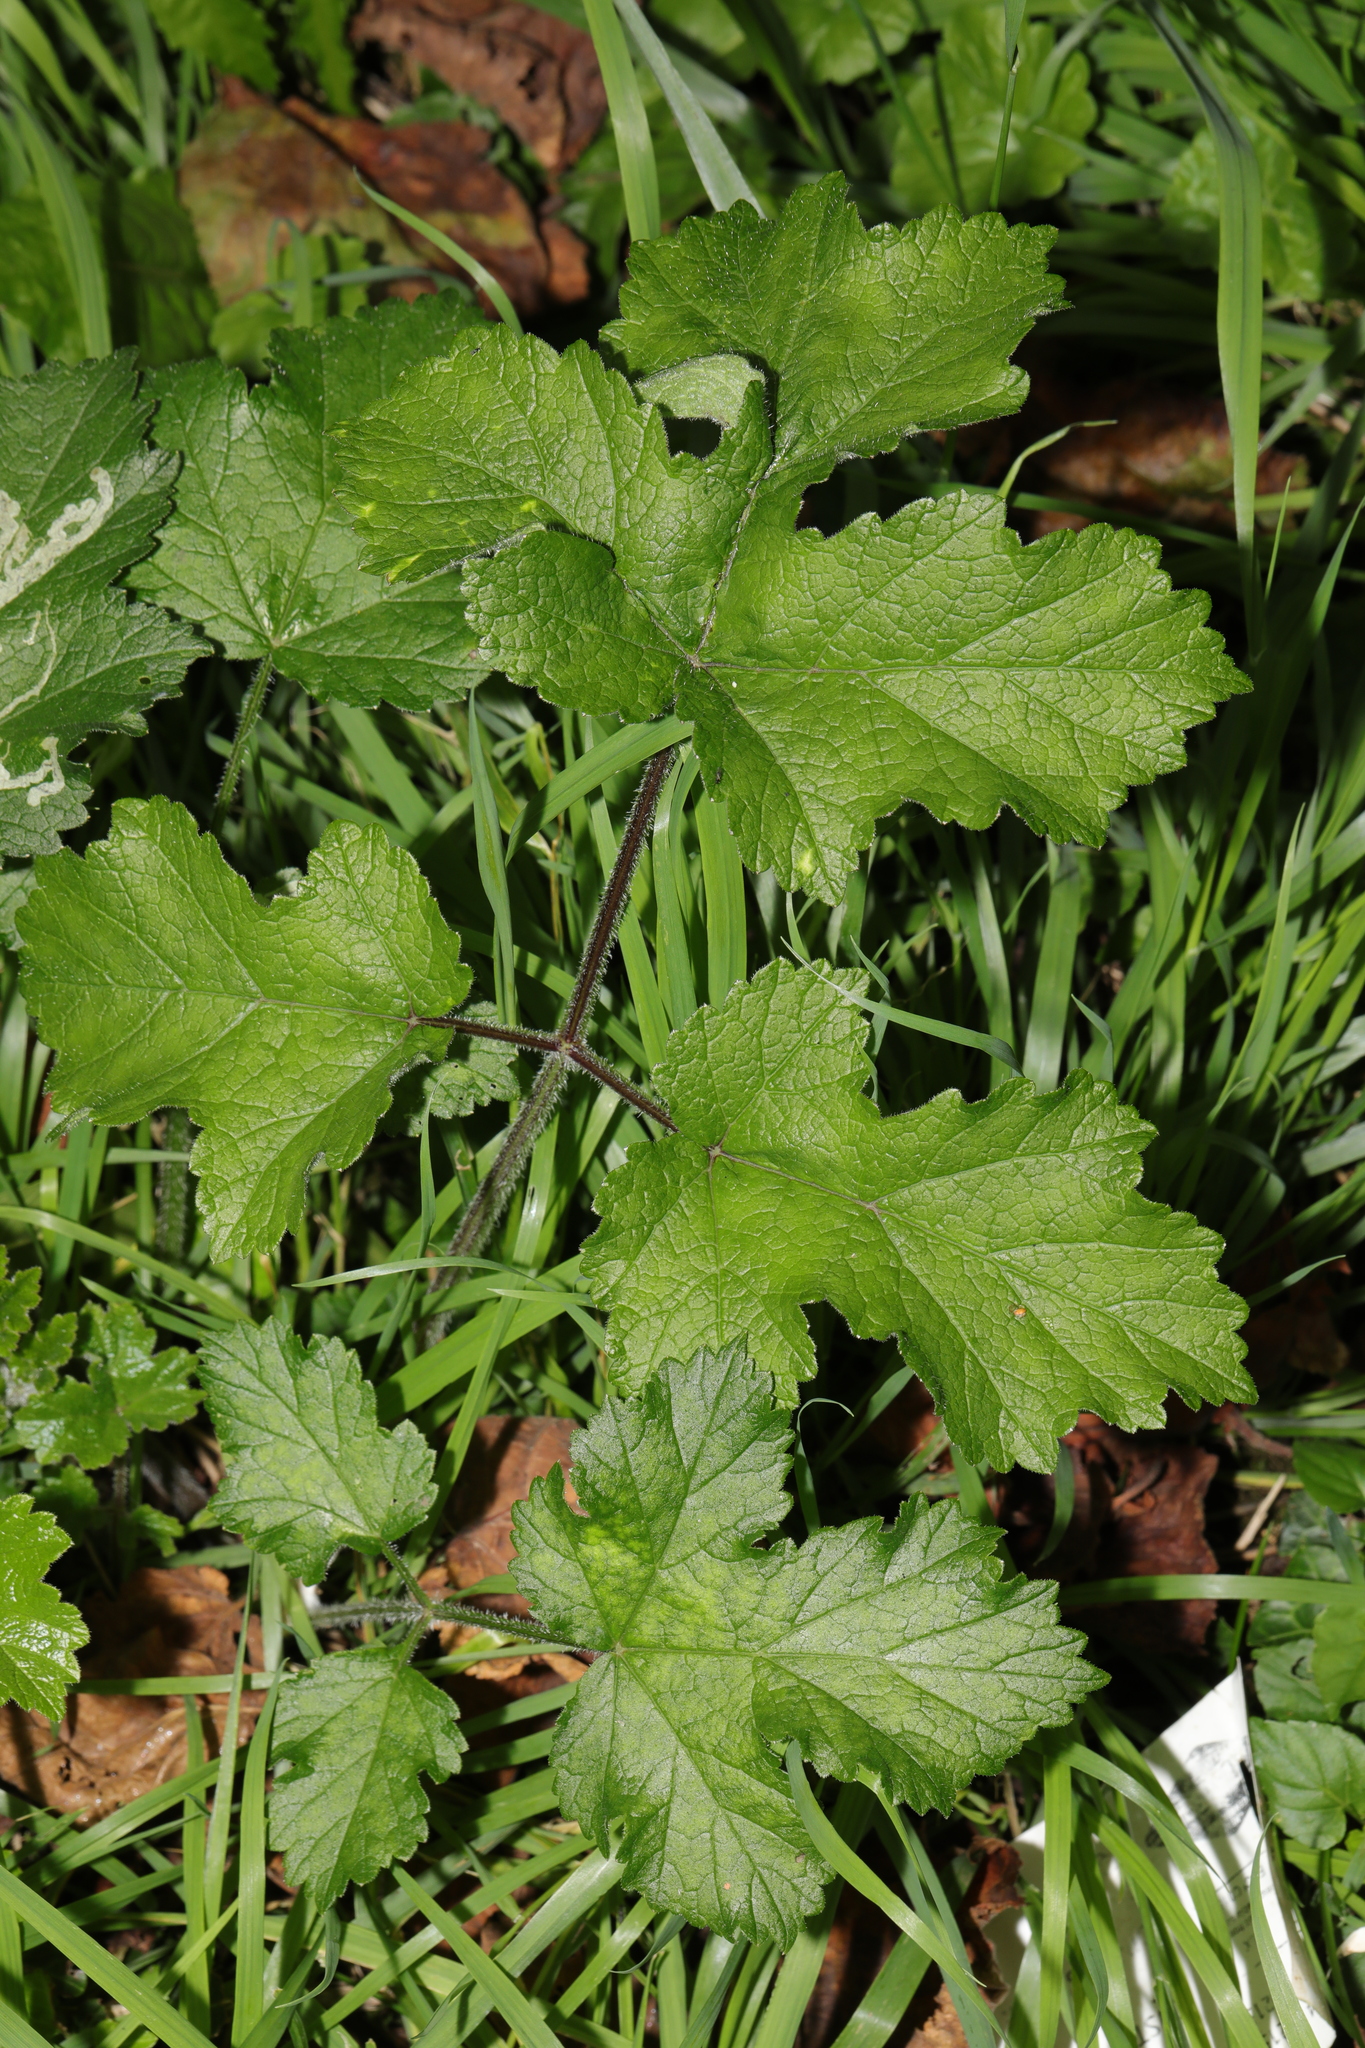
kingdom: Plantae
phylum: Tracheophyta
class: Magnoliopsida
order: Apiales
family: Apiaceae
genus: Heracleum
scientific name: Heracleum sphondylium
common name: Hogweed
